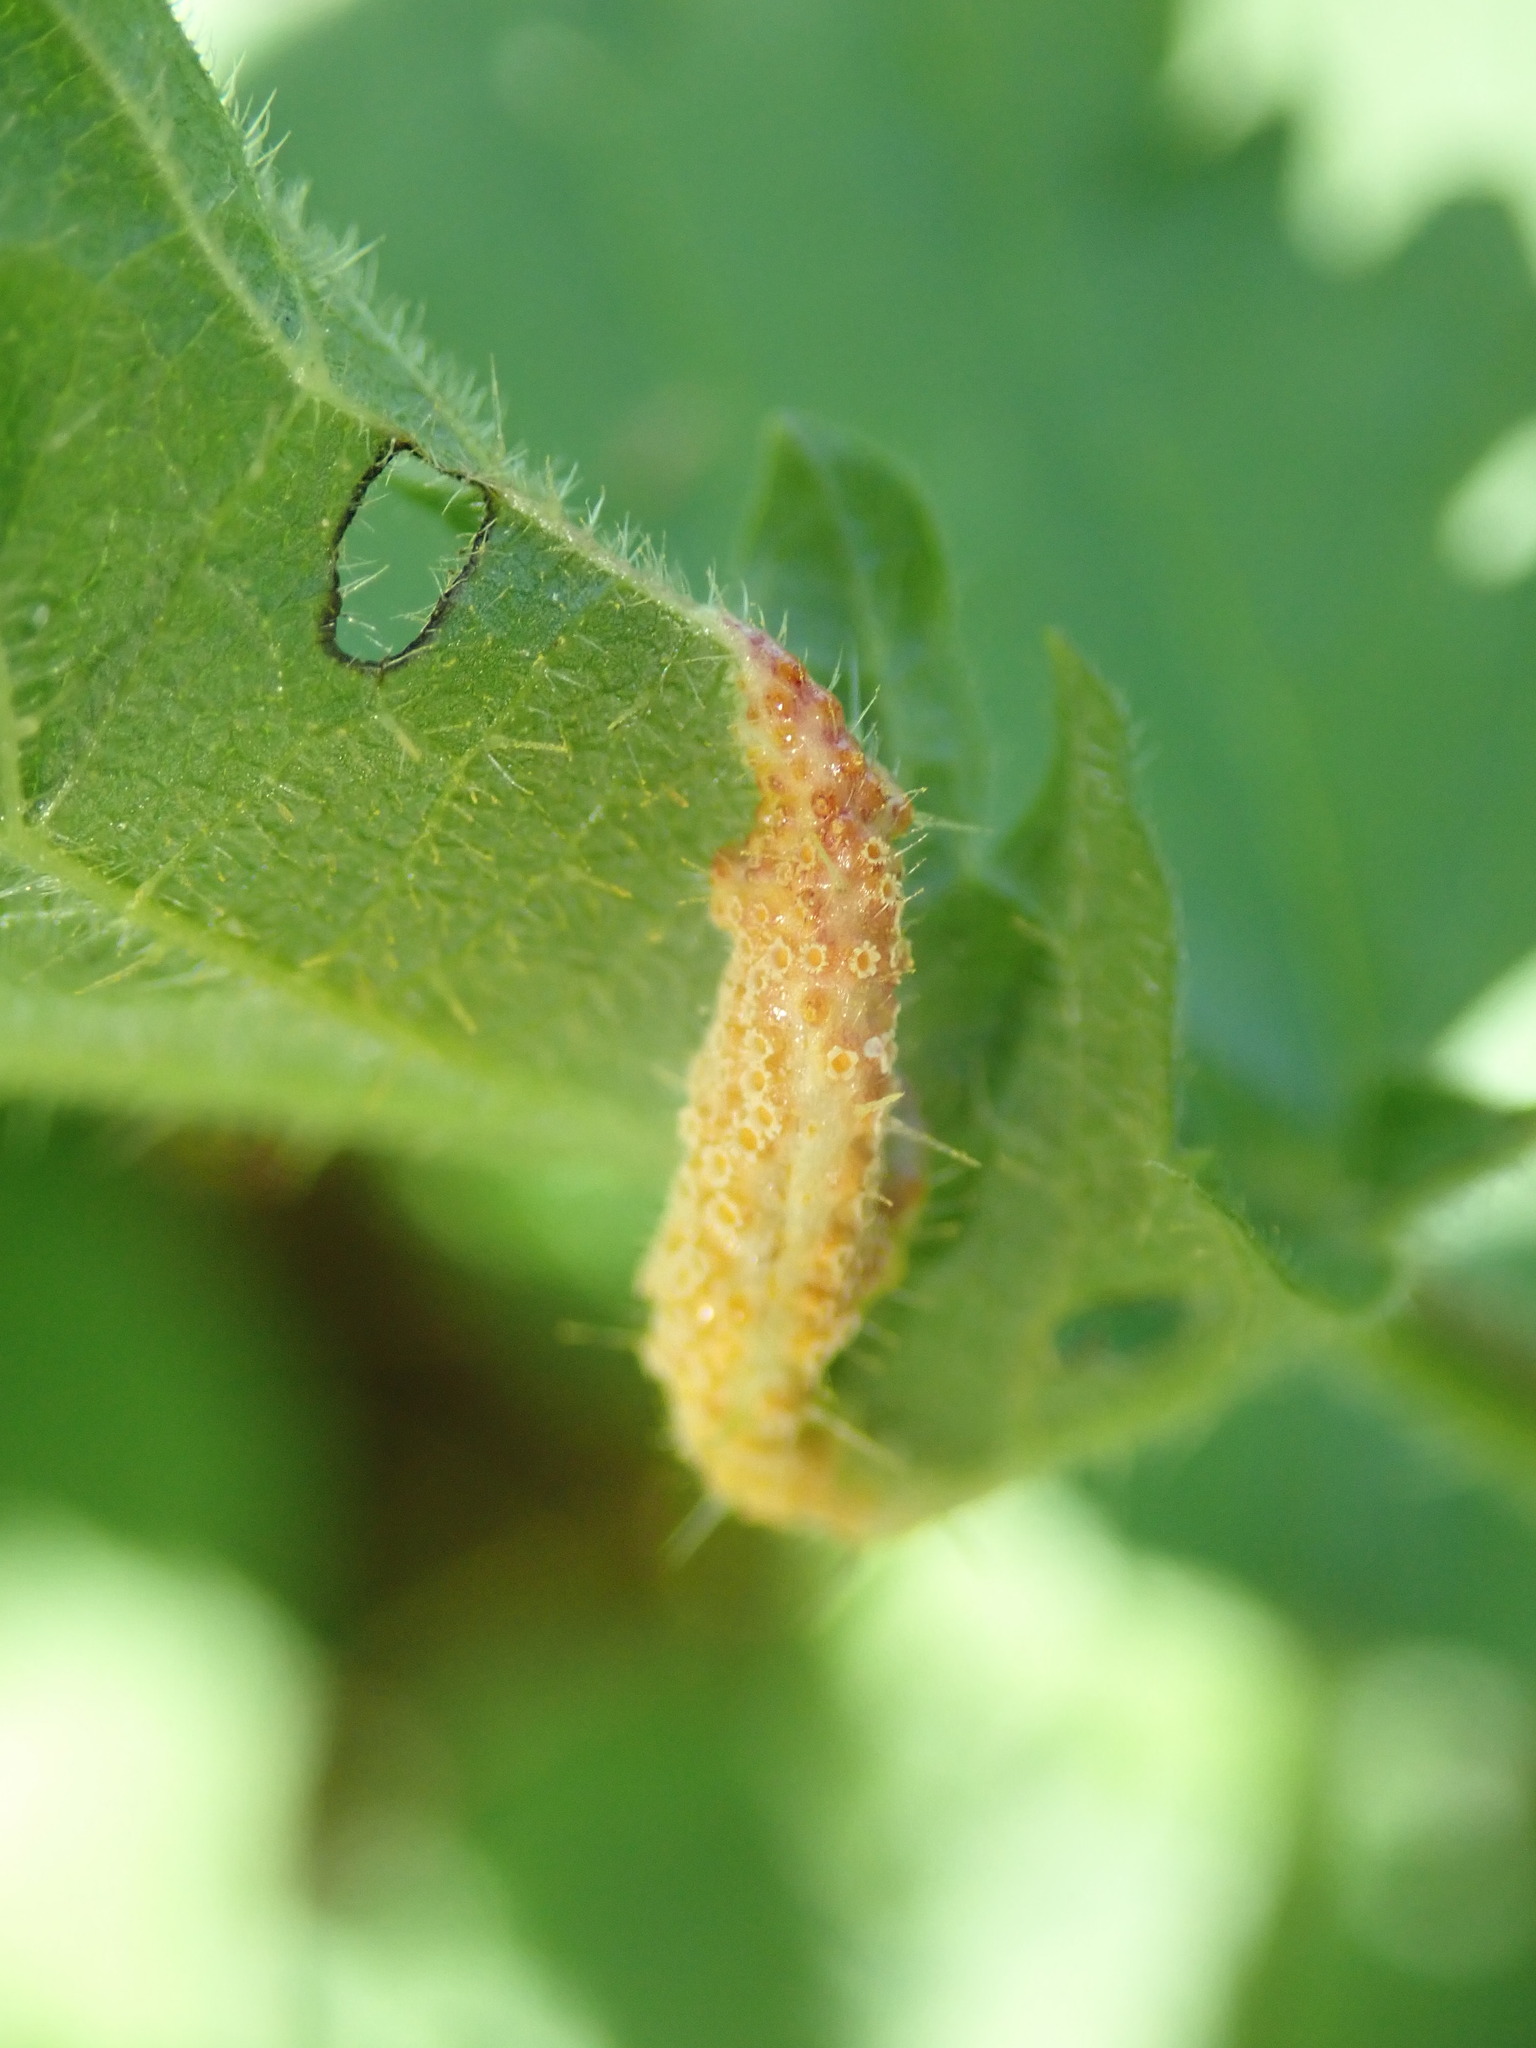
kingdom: Fungi
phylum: Basidiomycota
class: Pucciniomycetes
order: Pucciniales
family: Pucciniaceae
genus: Puccinia
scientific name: Puccinia urticata
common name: Nettle clustercup rust fungus
